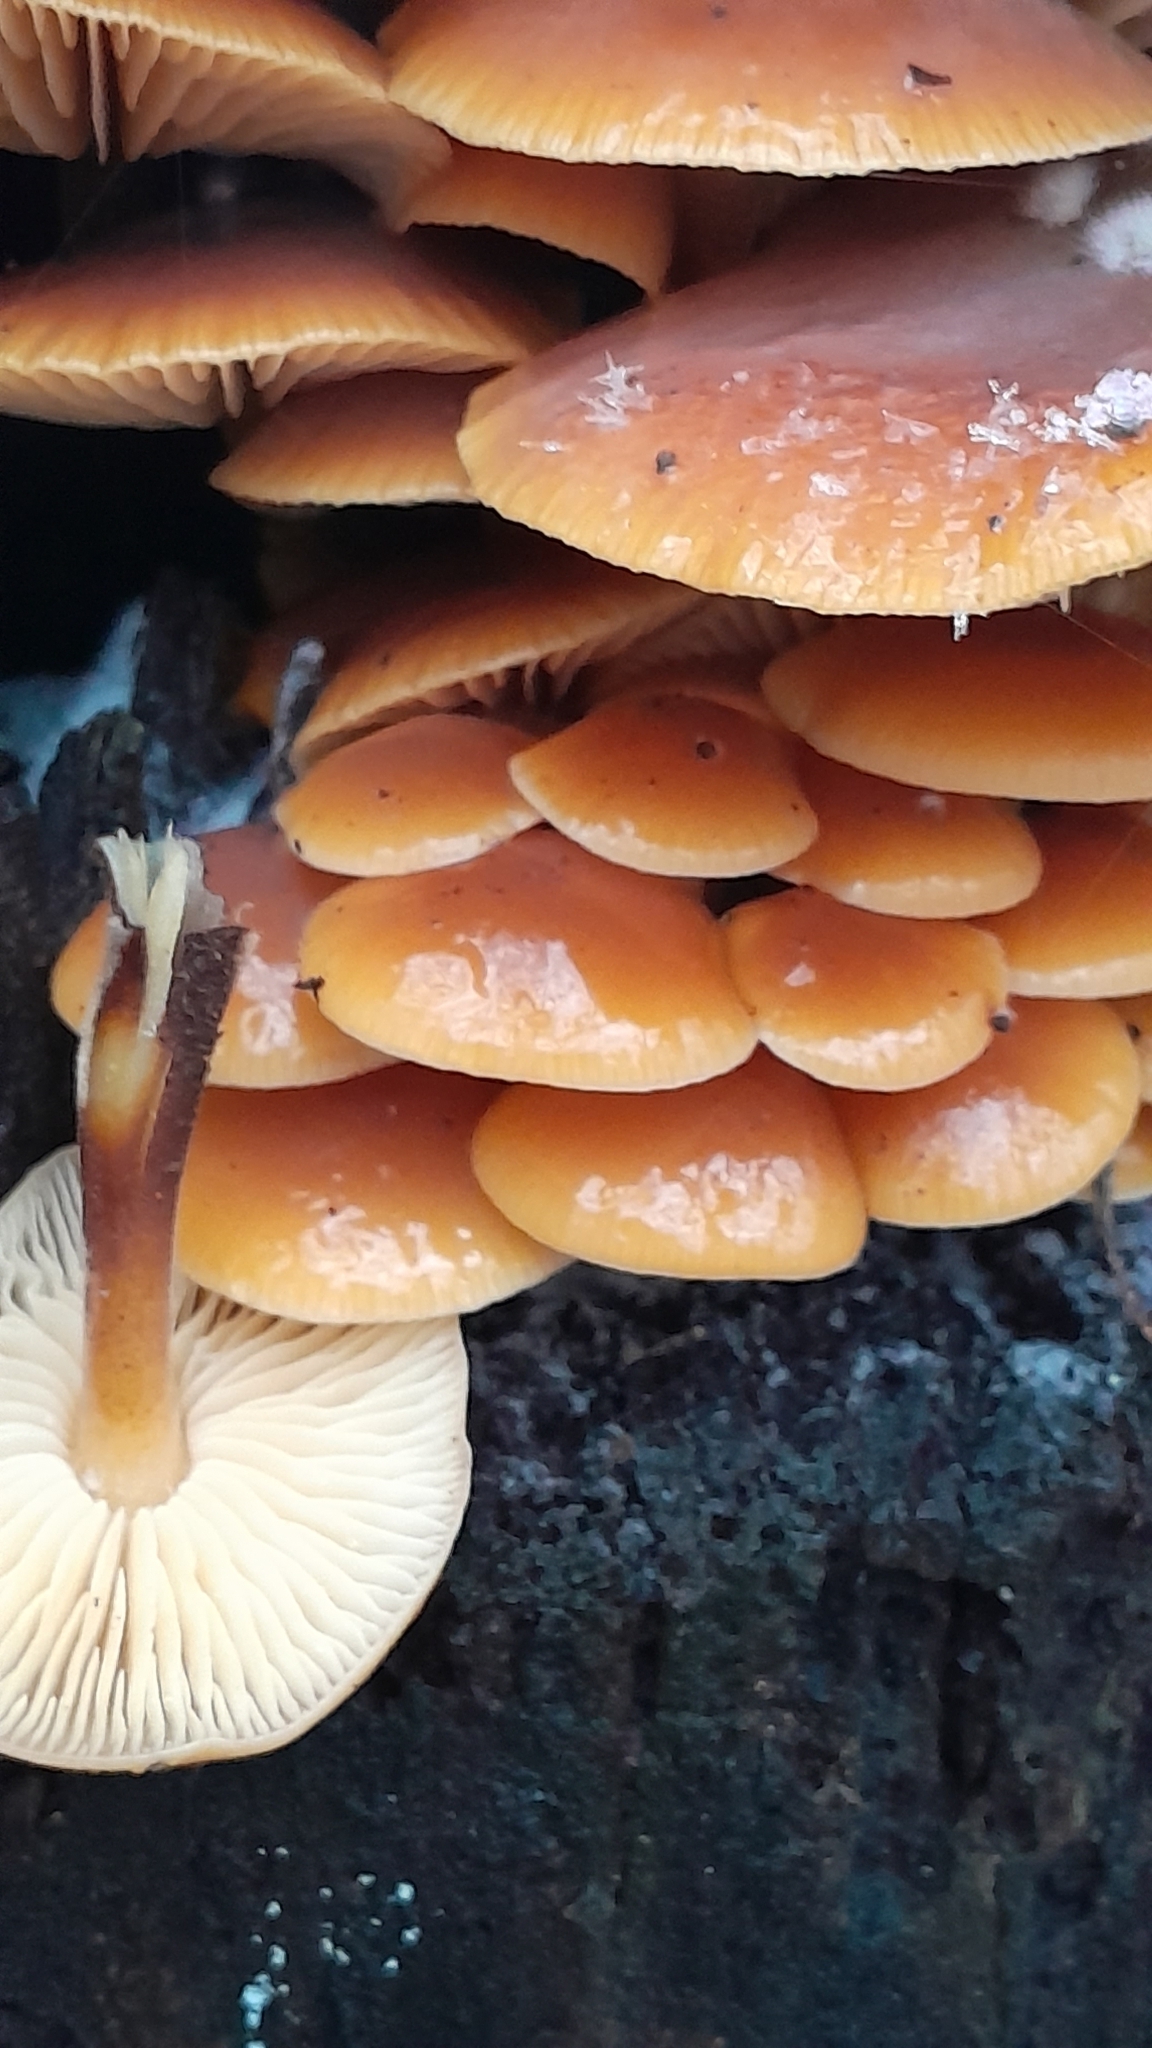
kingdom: Fungi
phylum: Basidiomycota
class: Agaricomycetes
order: Agaricales
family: Physalacriaceae
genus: Flammulina
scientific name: Flammulina
